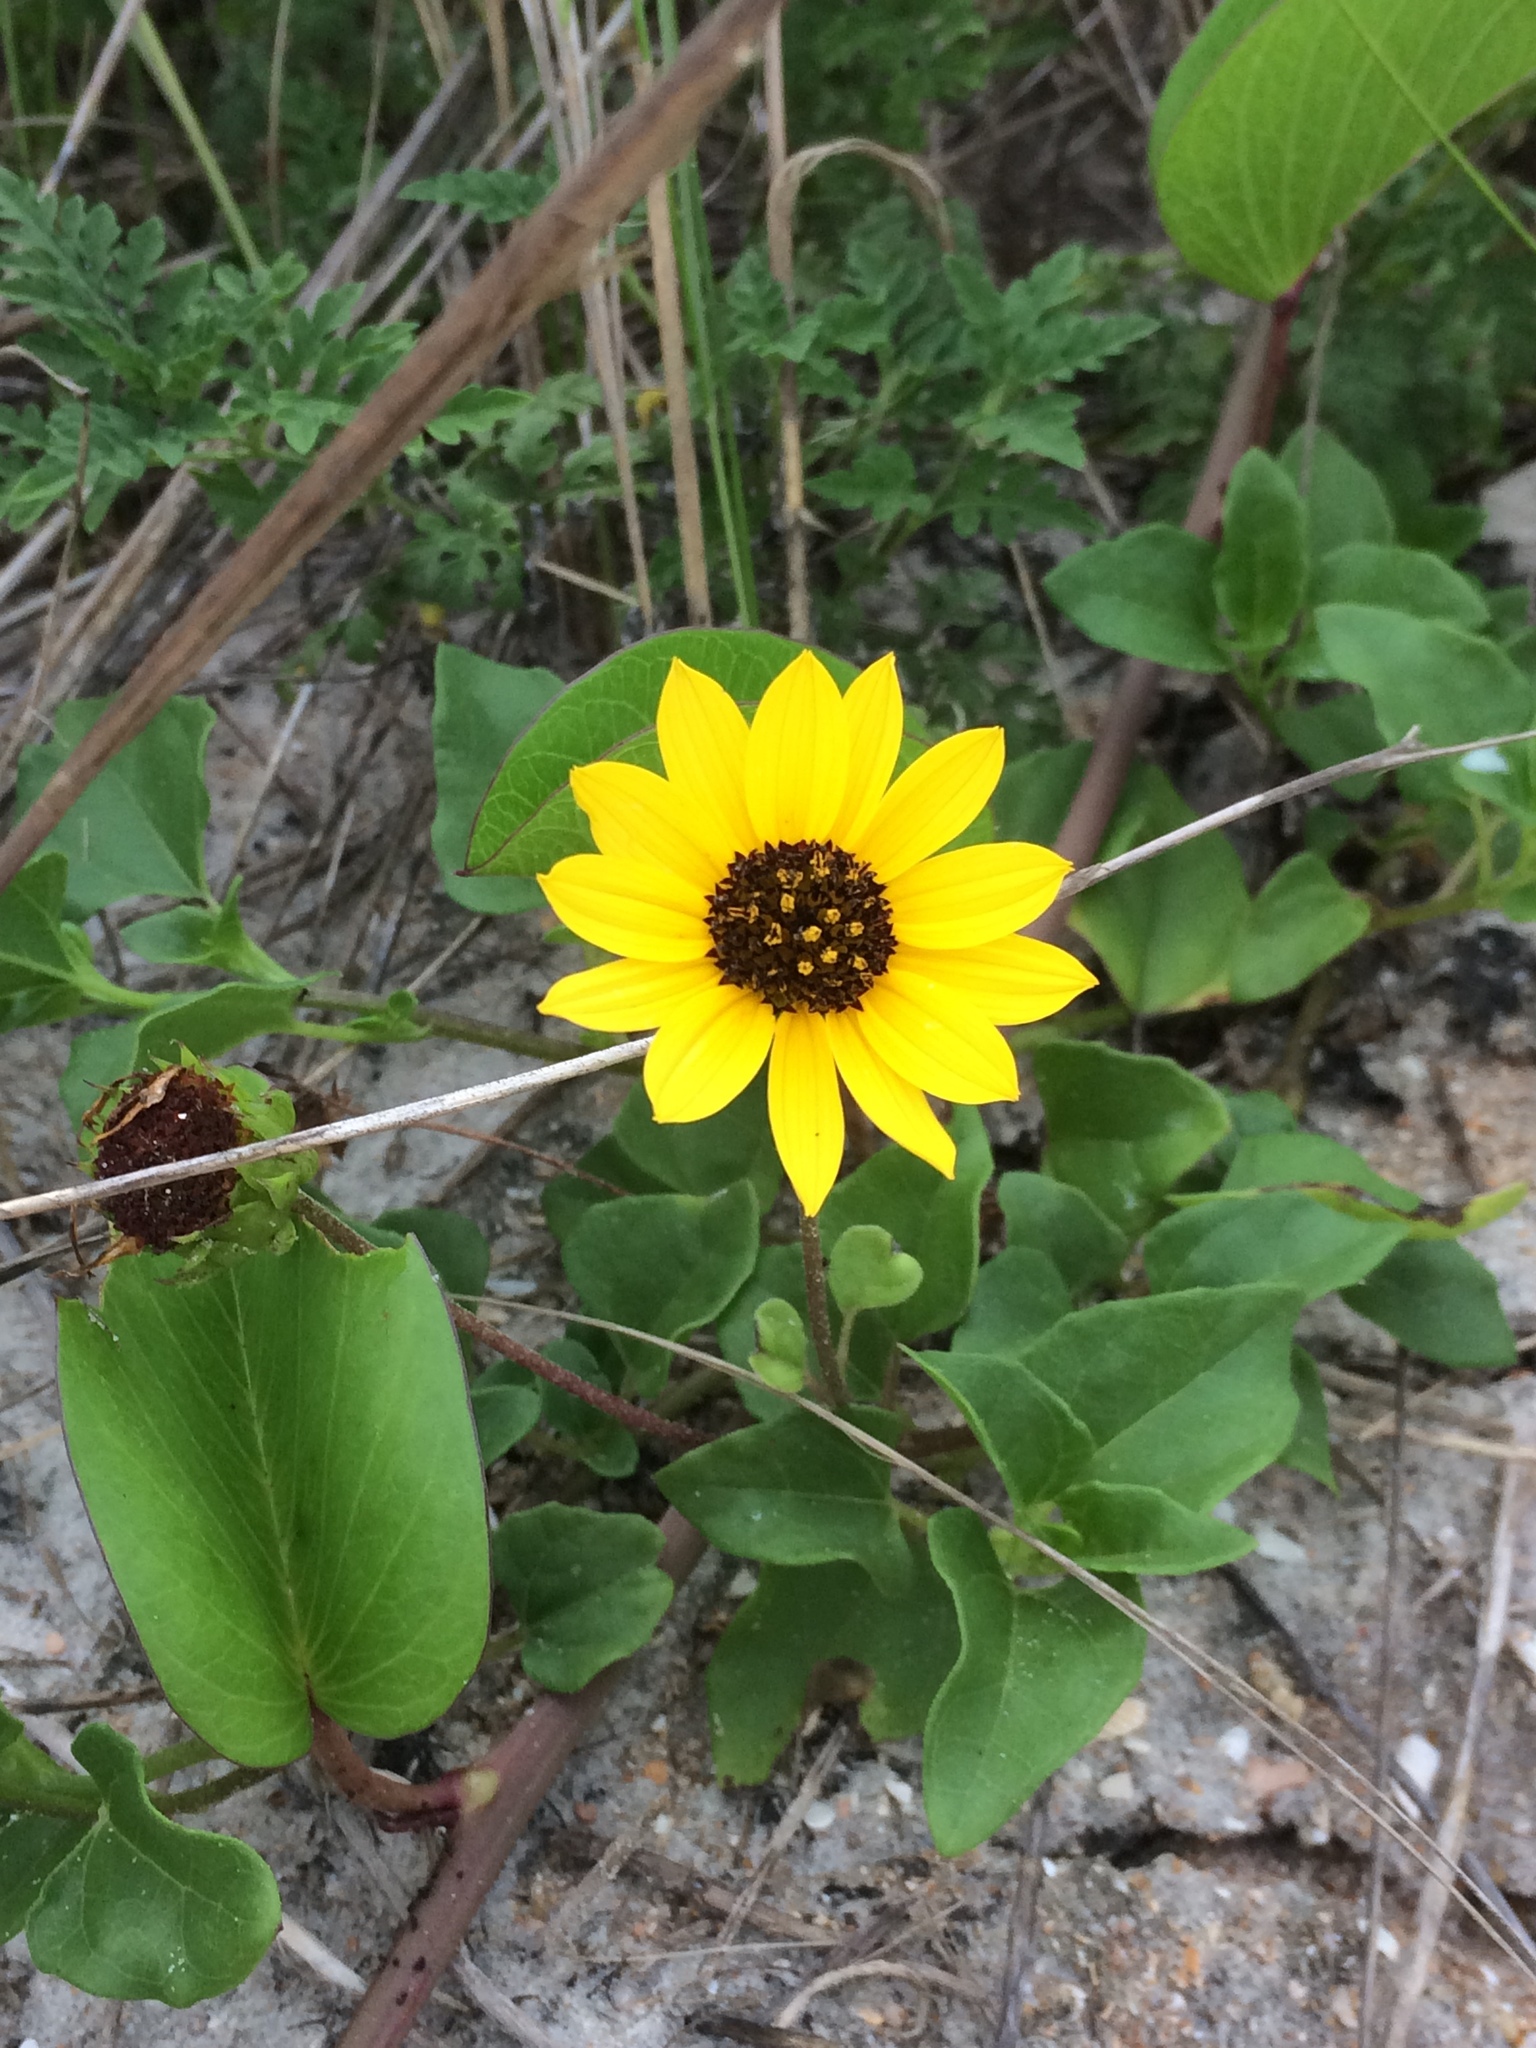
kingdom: Plantae
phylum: Tracheophyta
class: Magnoliopsida
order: Asterales
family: Asteraceae
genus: Helianthus
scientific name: Helianthus debilis
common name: Weak sunflower
